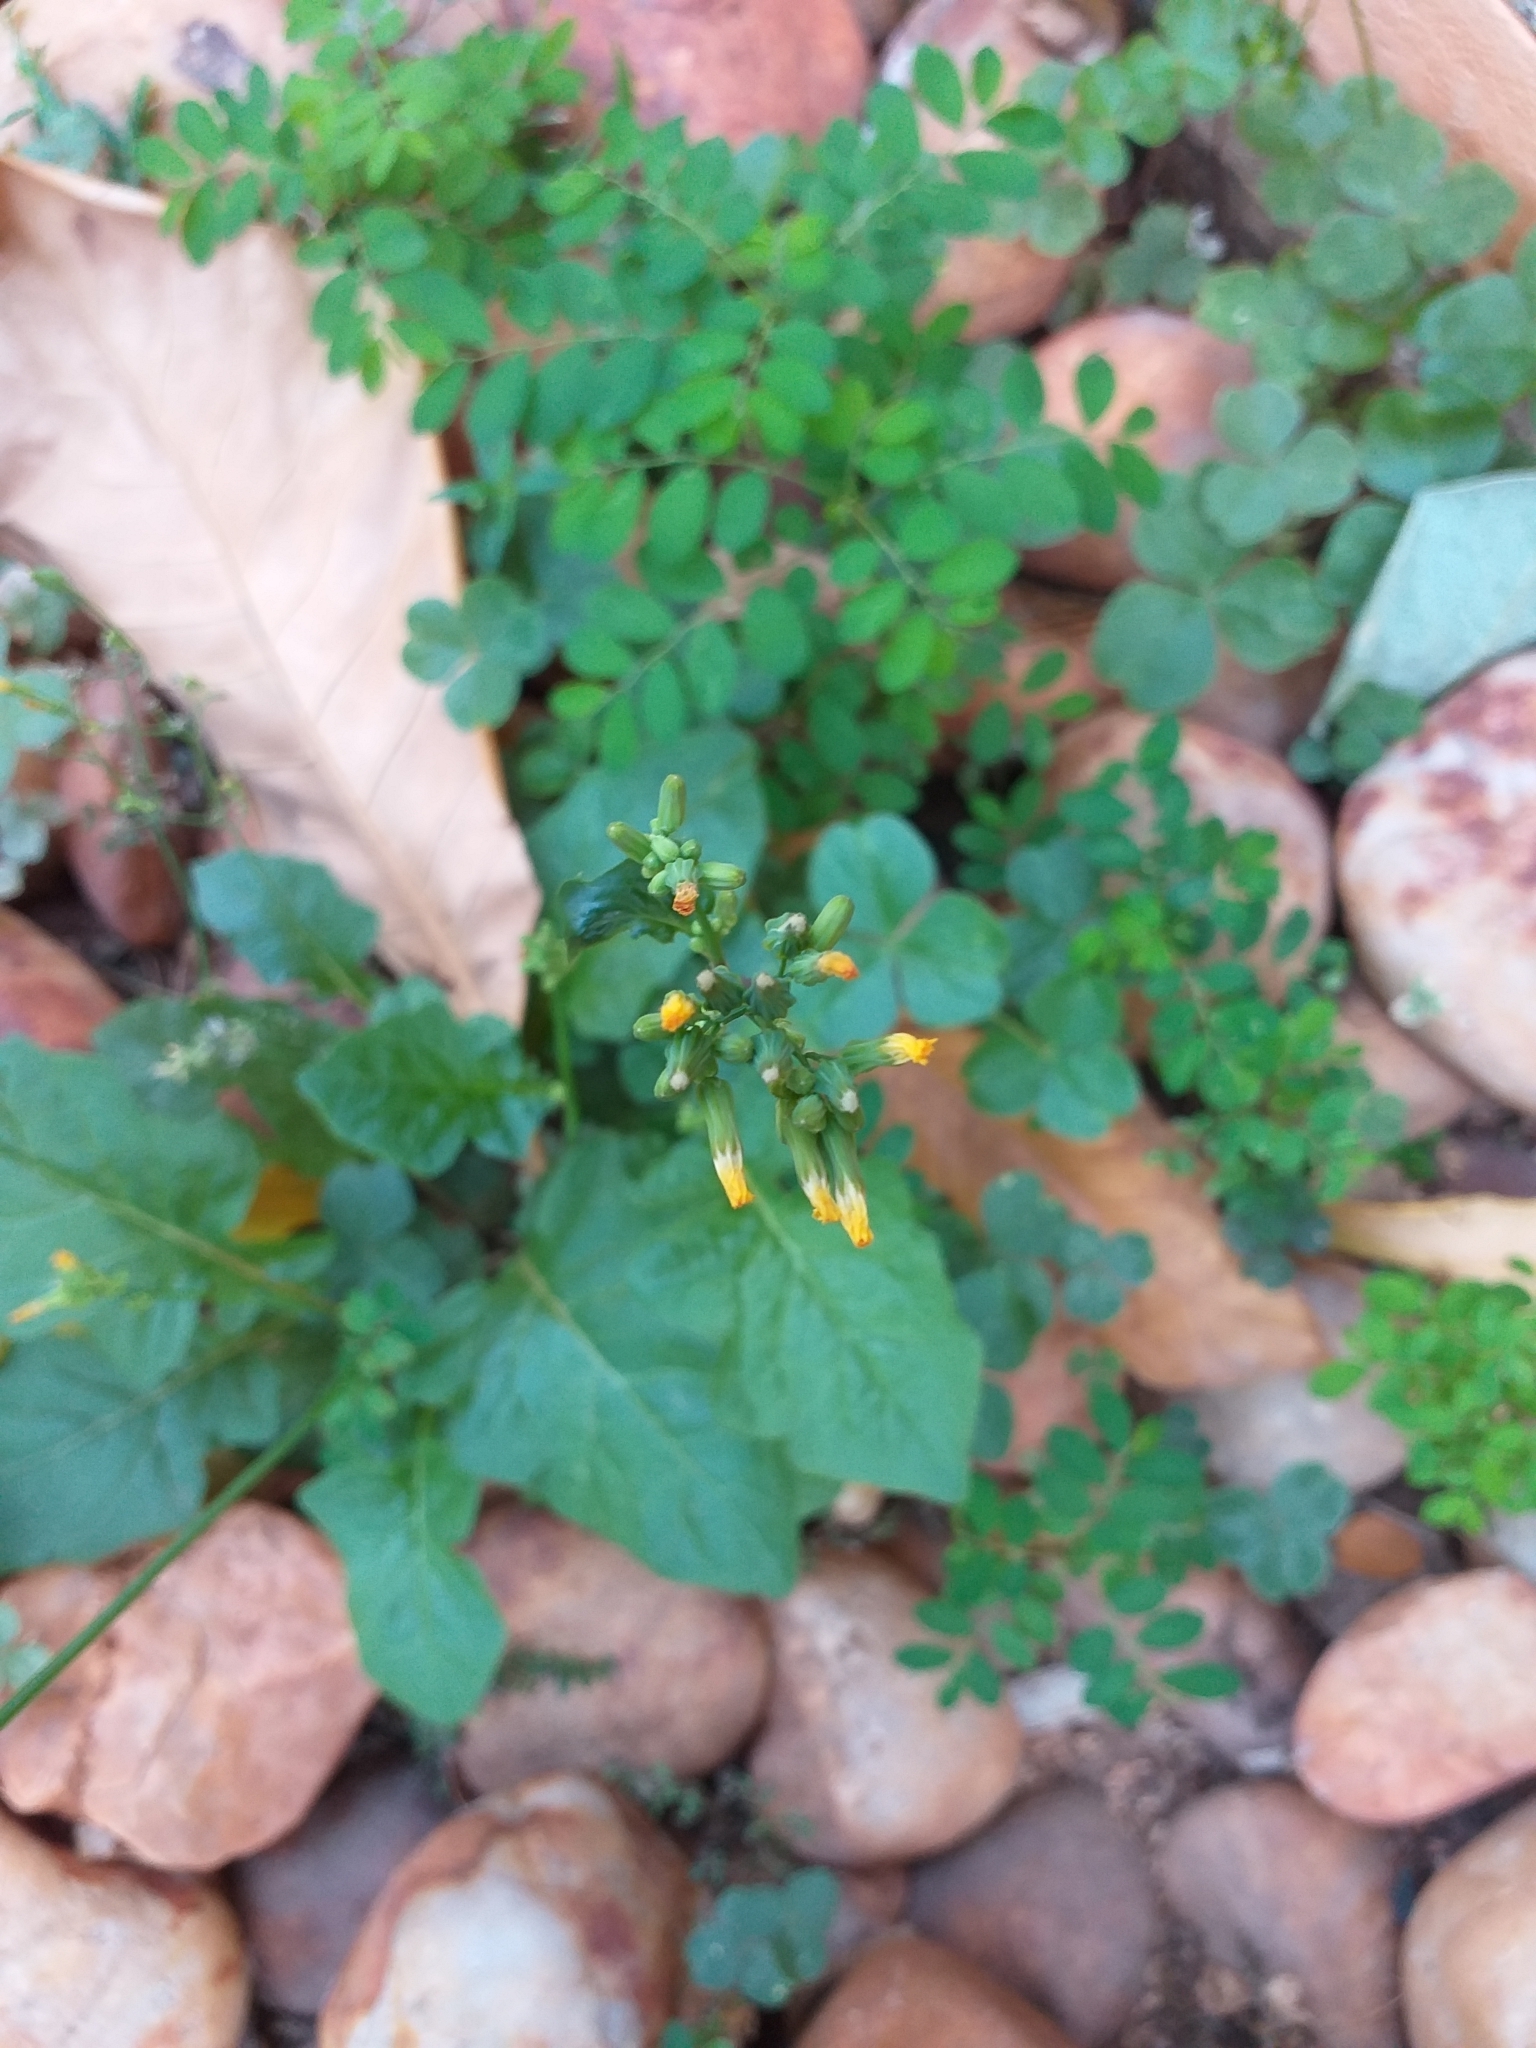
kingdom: Plantae
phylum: Tracheophyta
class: Magnoliopsida
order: Asterales
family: Asteraceae
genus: Youngia
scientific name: Youngia japonica
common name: Oriental false hawksbeard
